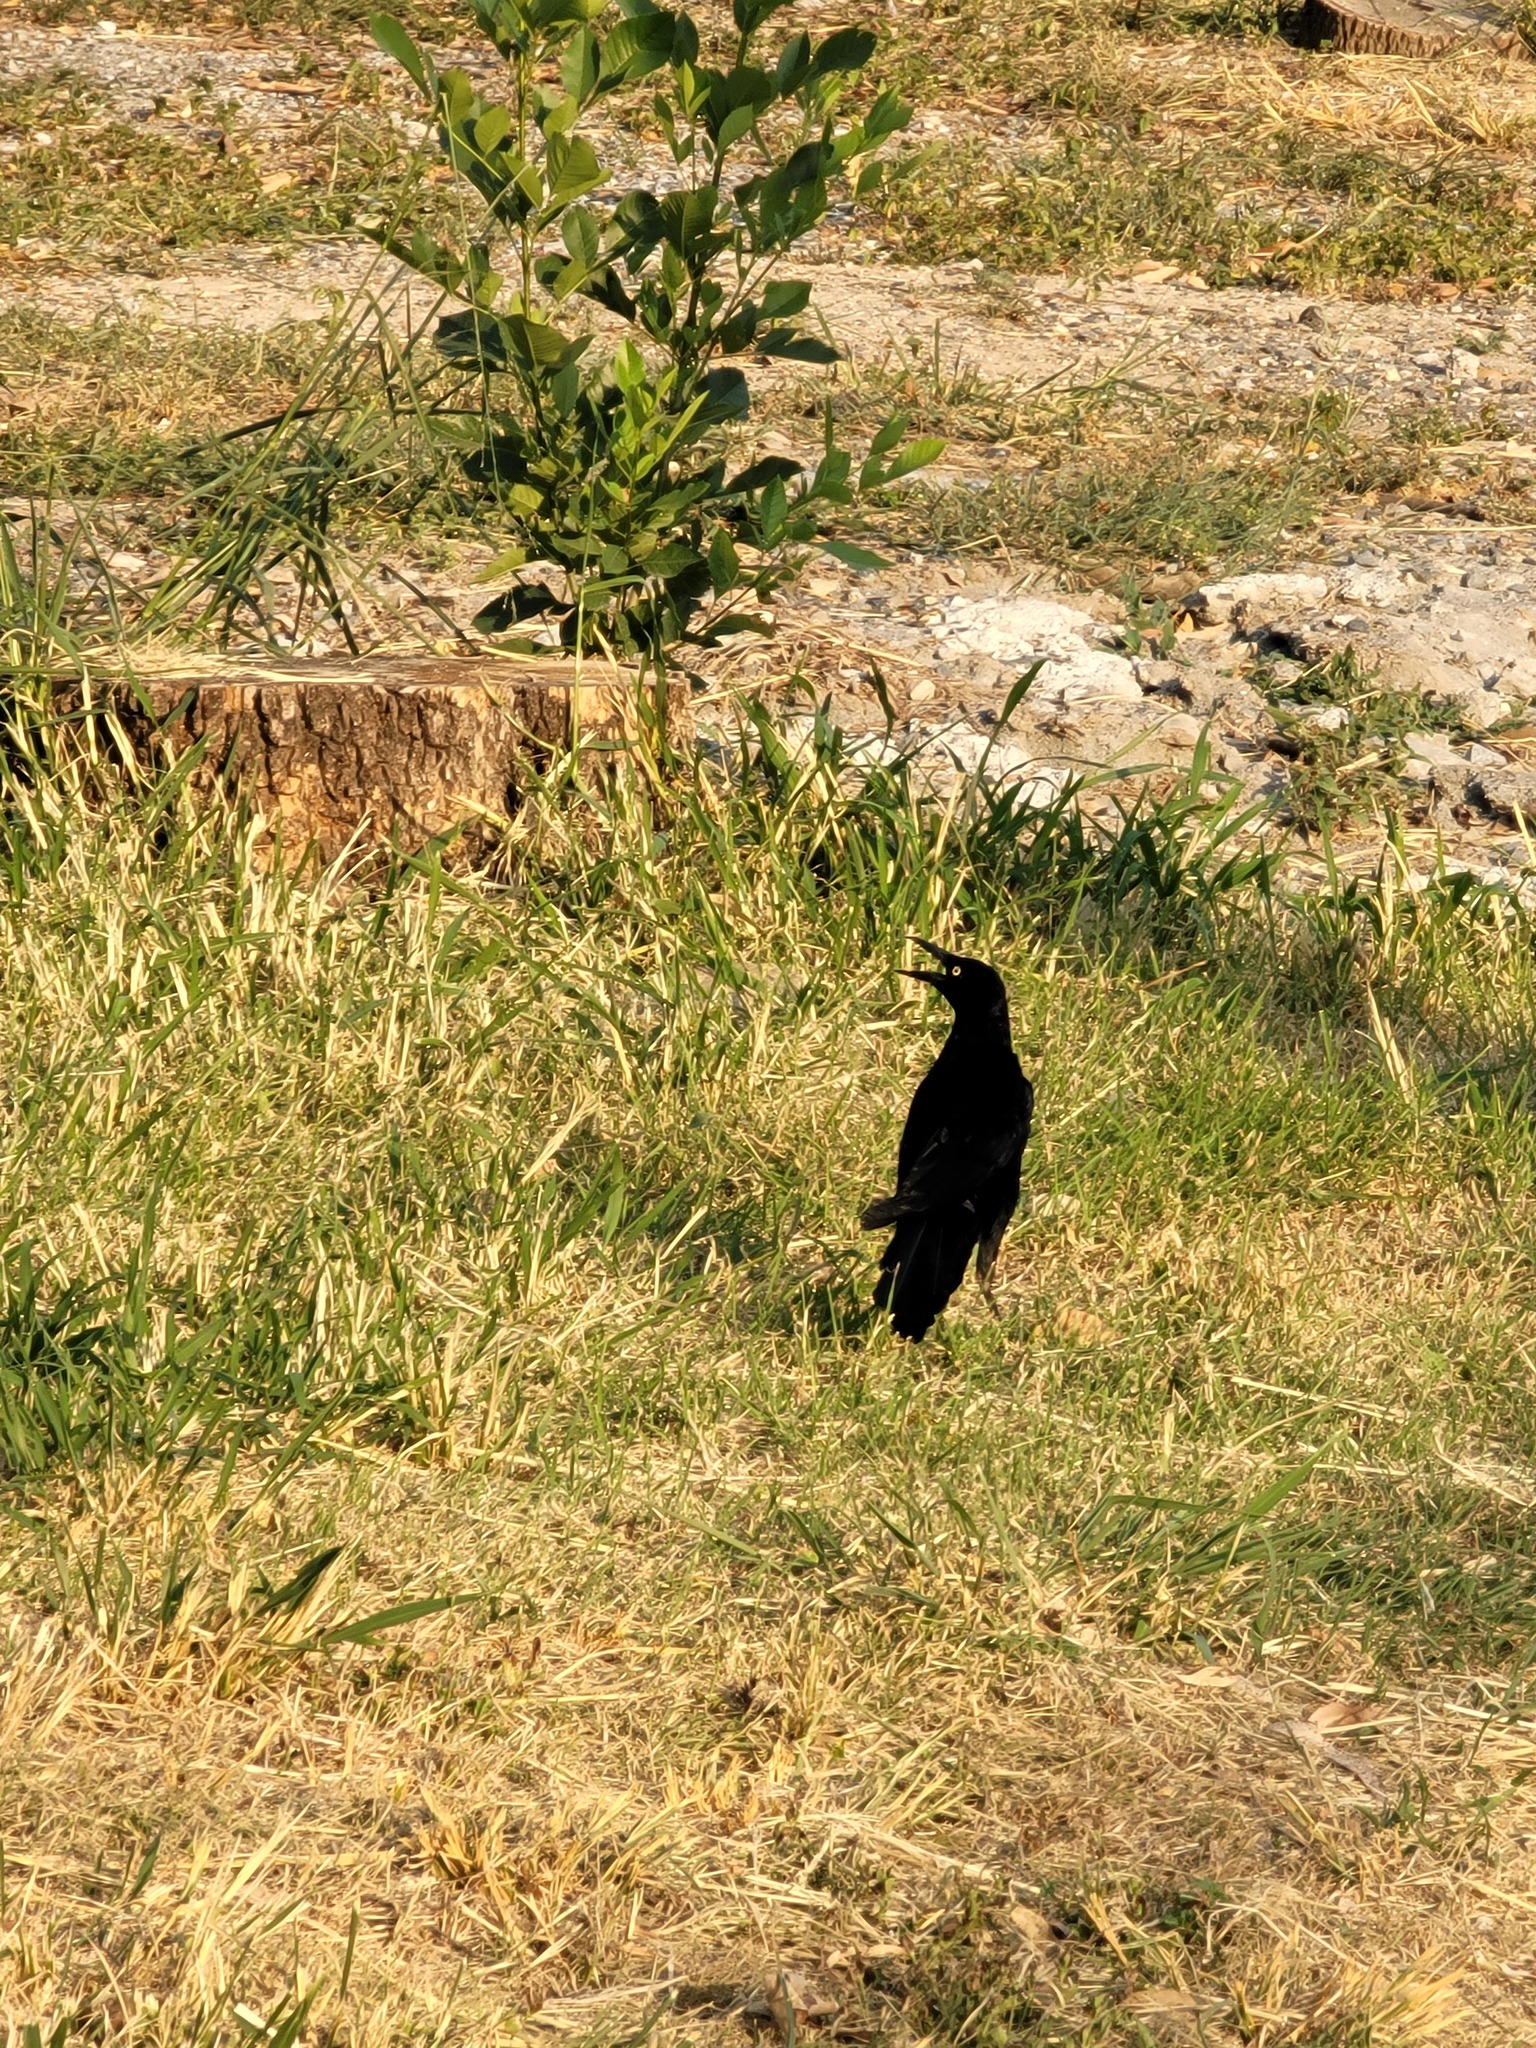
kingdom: Animalia
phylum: Chordata
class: Aves
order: Passeriformes
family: Icteridae
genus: Quiscalus
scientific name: Quiscalus mexicanus
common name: Great-tailed grackle
